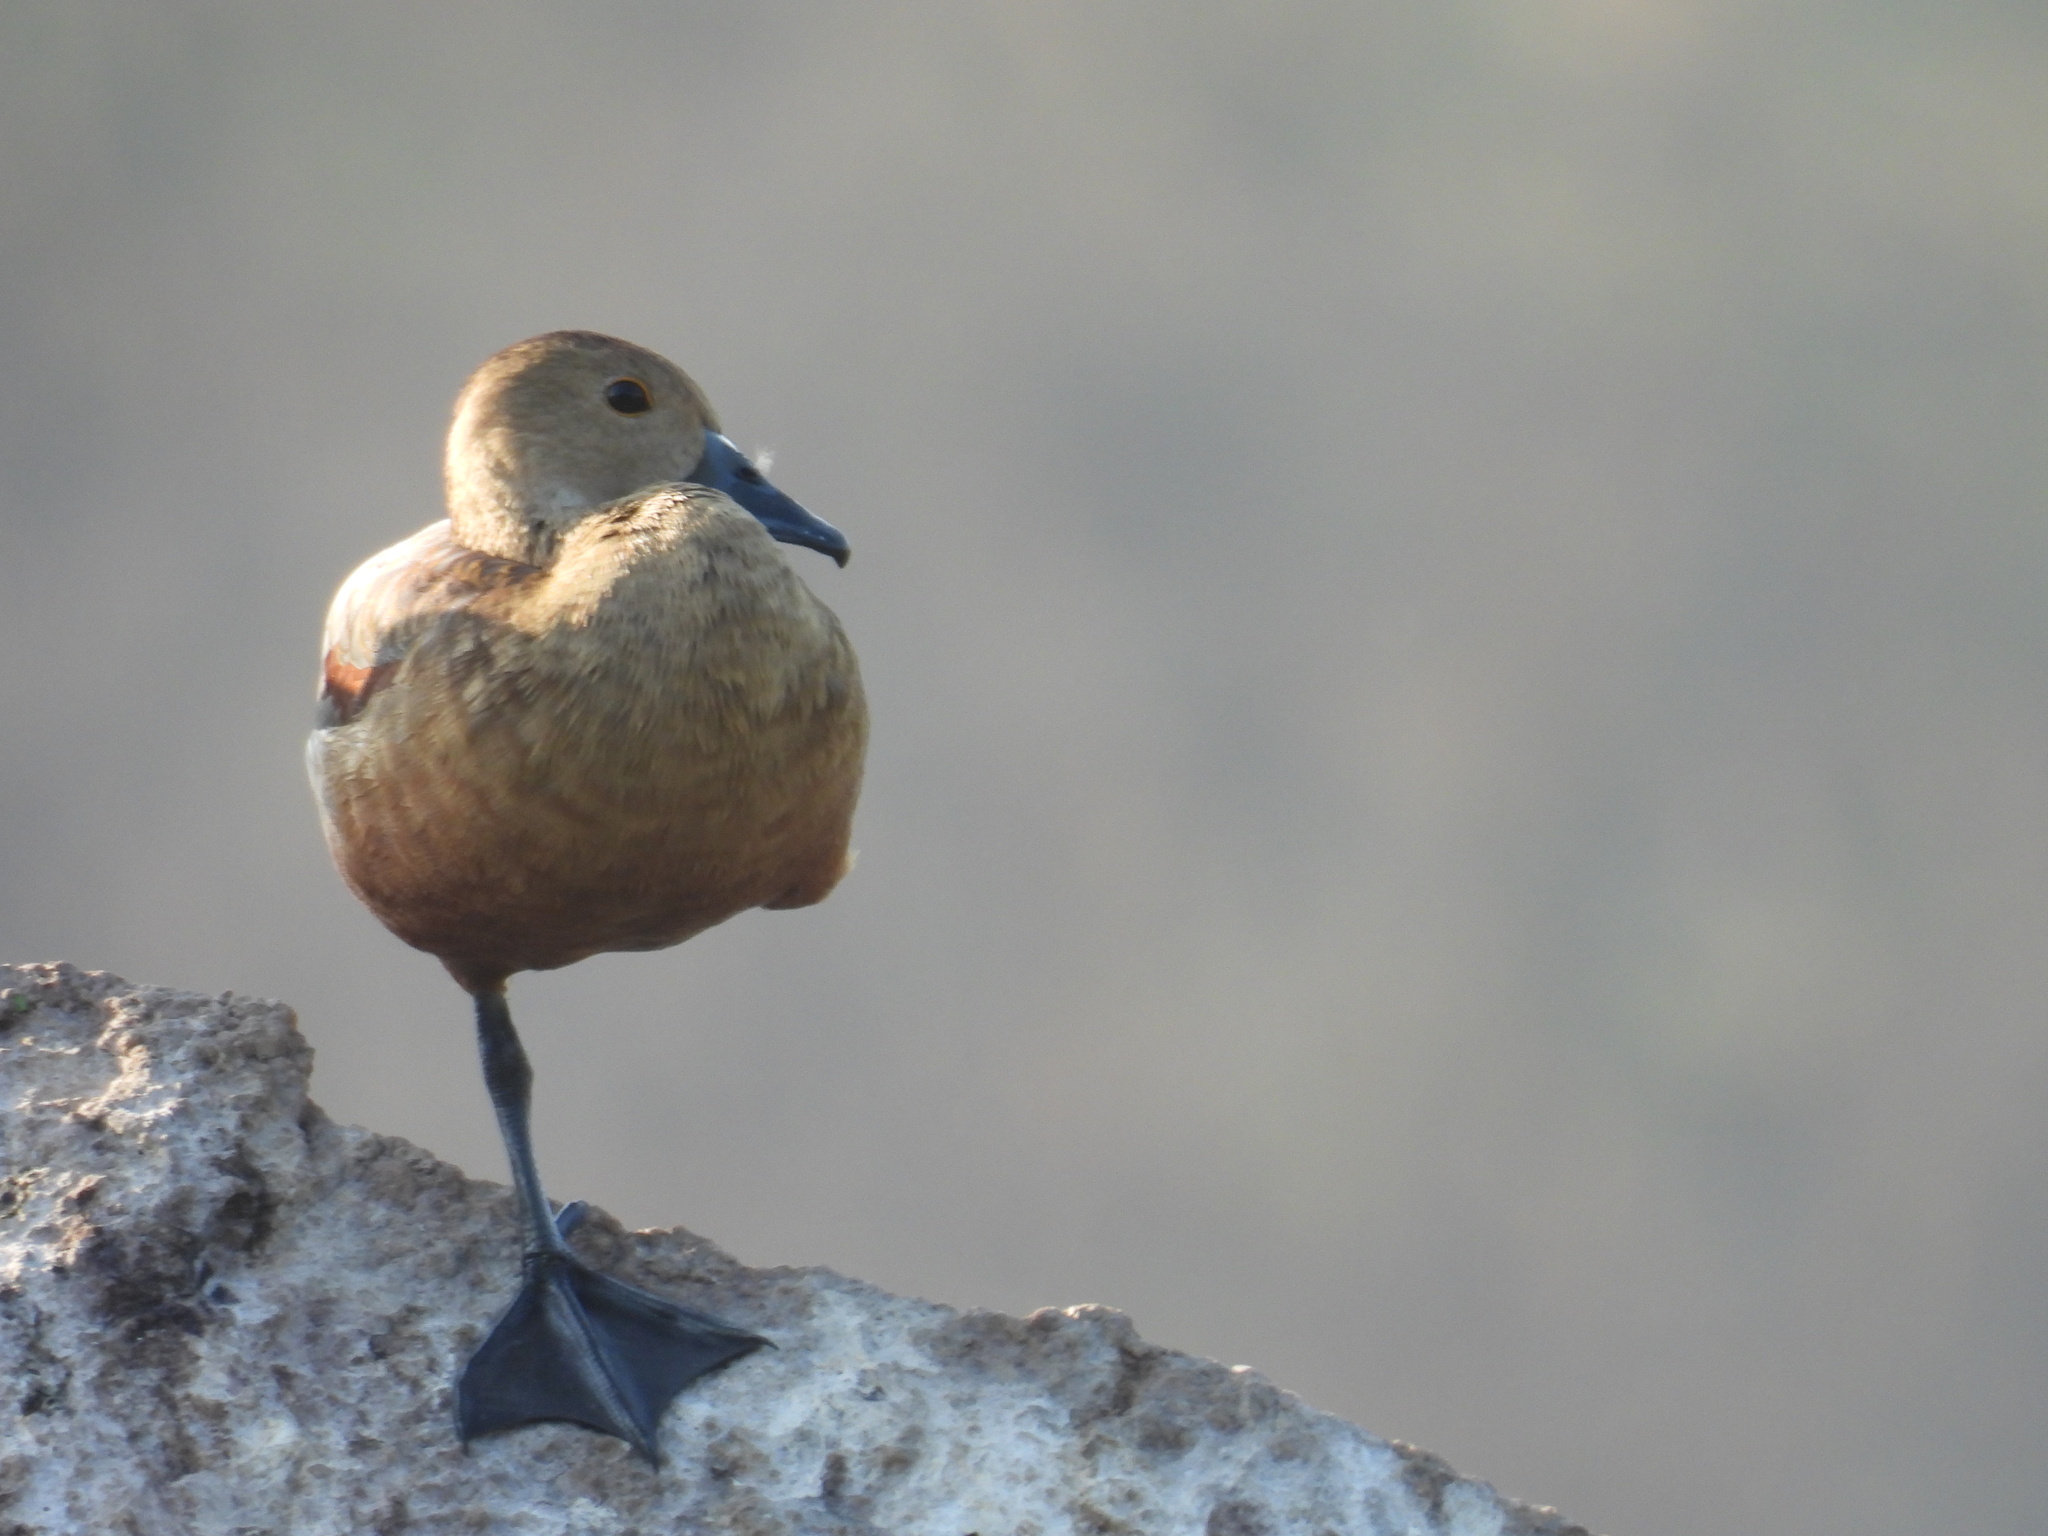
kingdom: Animalia
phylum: Chordata
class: Aves
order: Anseriformes
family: Anatidae
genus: Dendrocygna
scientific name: Dendrocygna javanica
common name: Lesser whistling-duck
